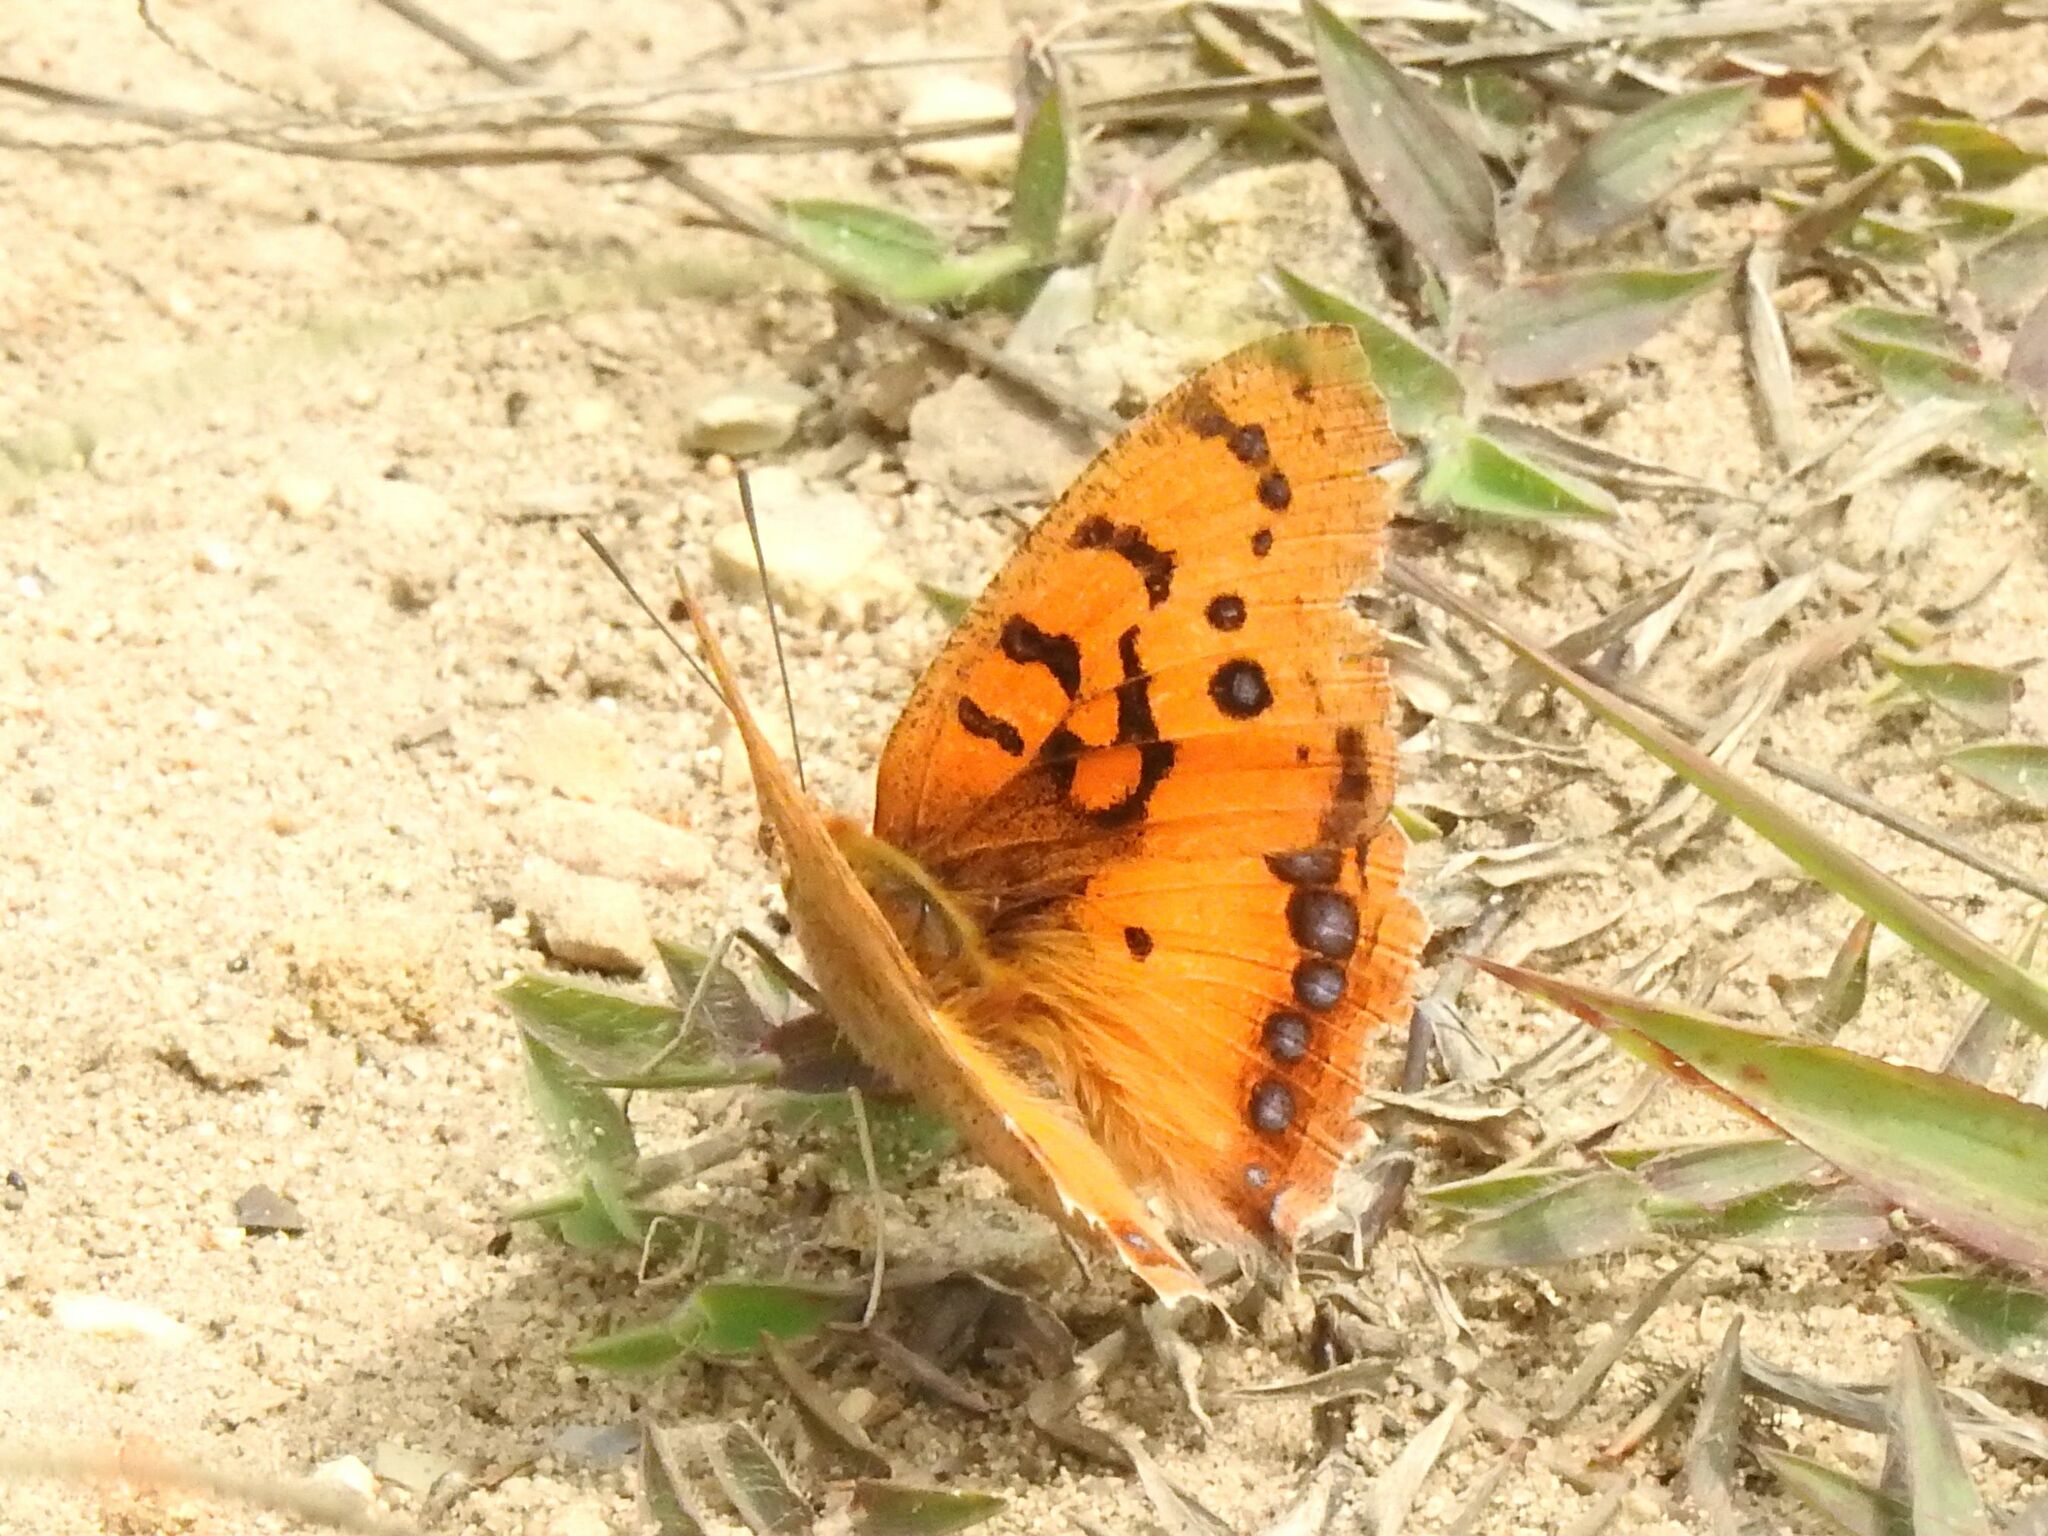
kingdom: Animalia
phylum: Arthropoda
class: Insecta
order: Lepidoptera
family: Nymphalidae
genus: Catacroptera
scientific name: Catacroptera cloanthe
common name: Pirate
